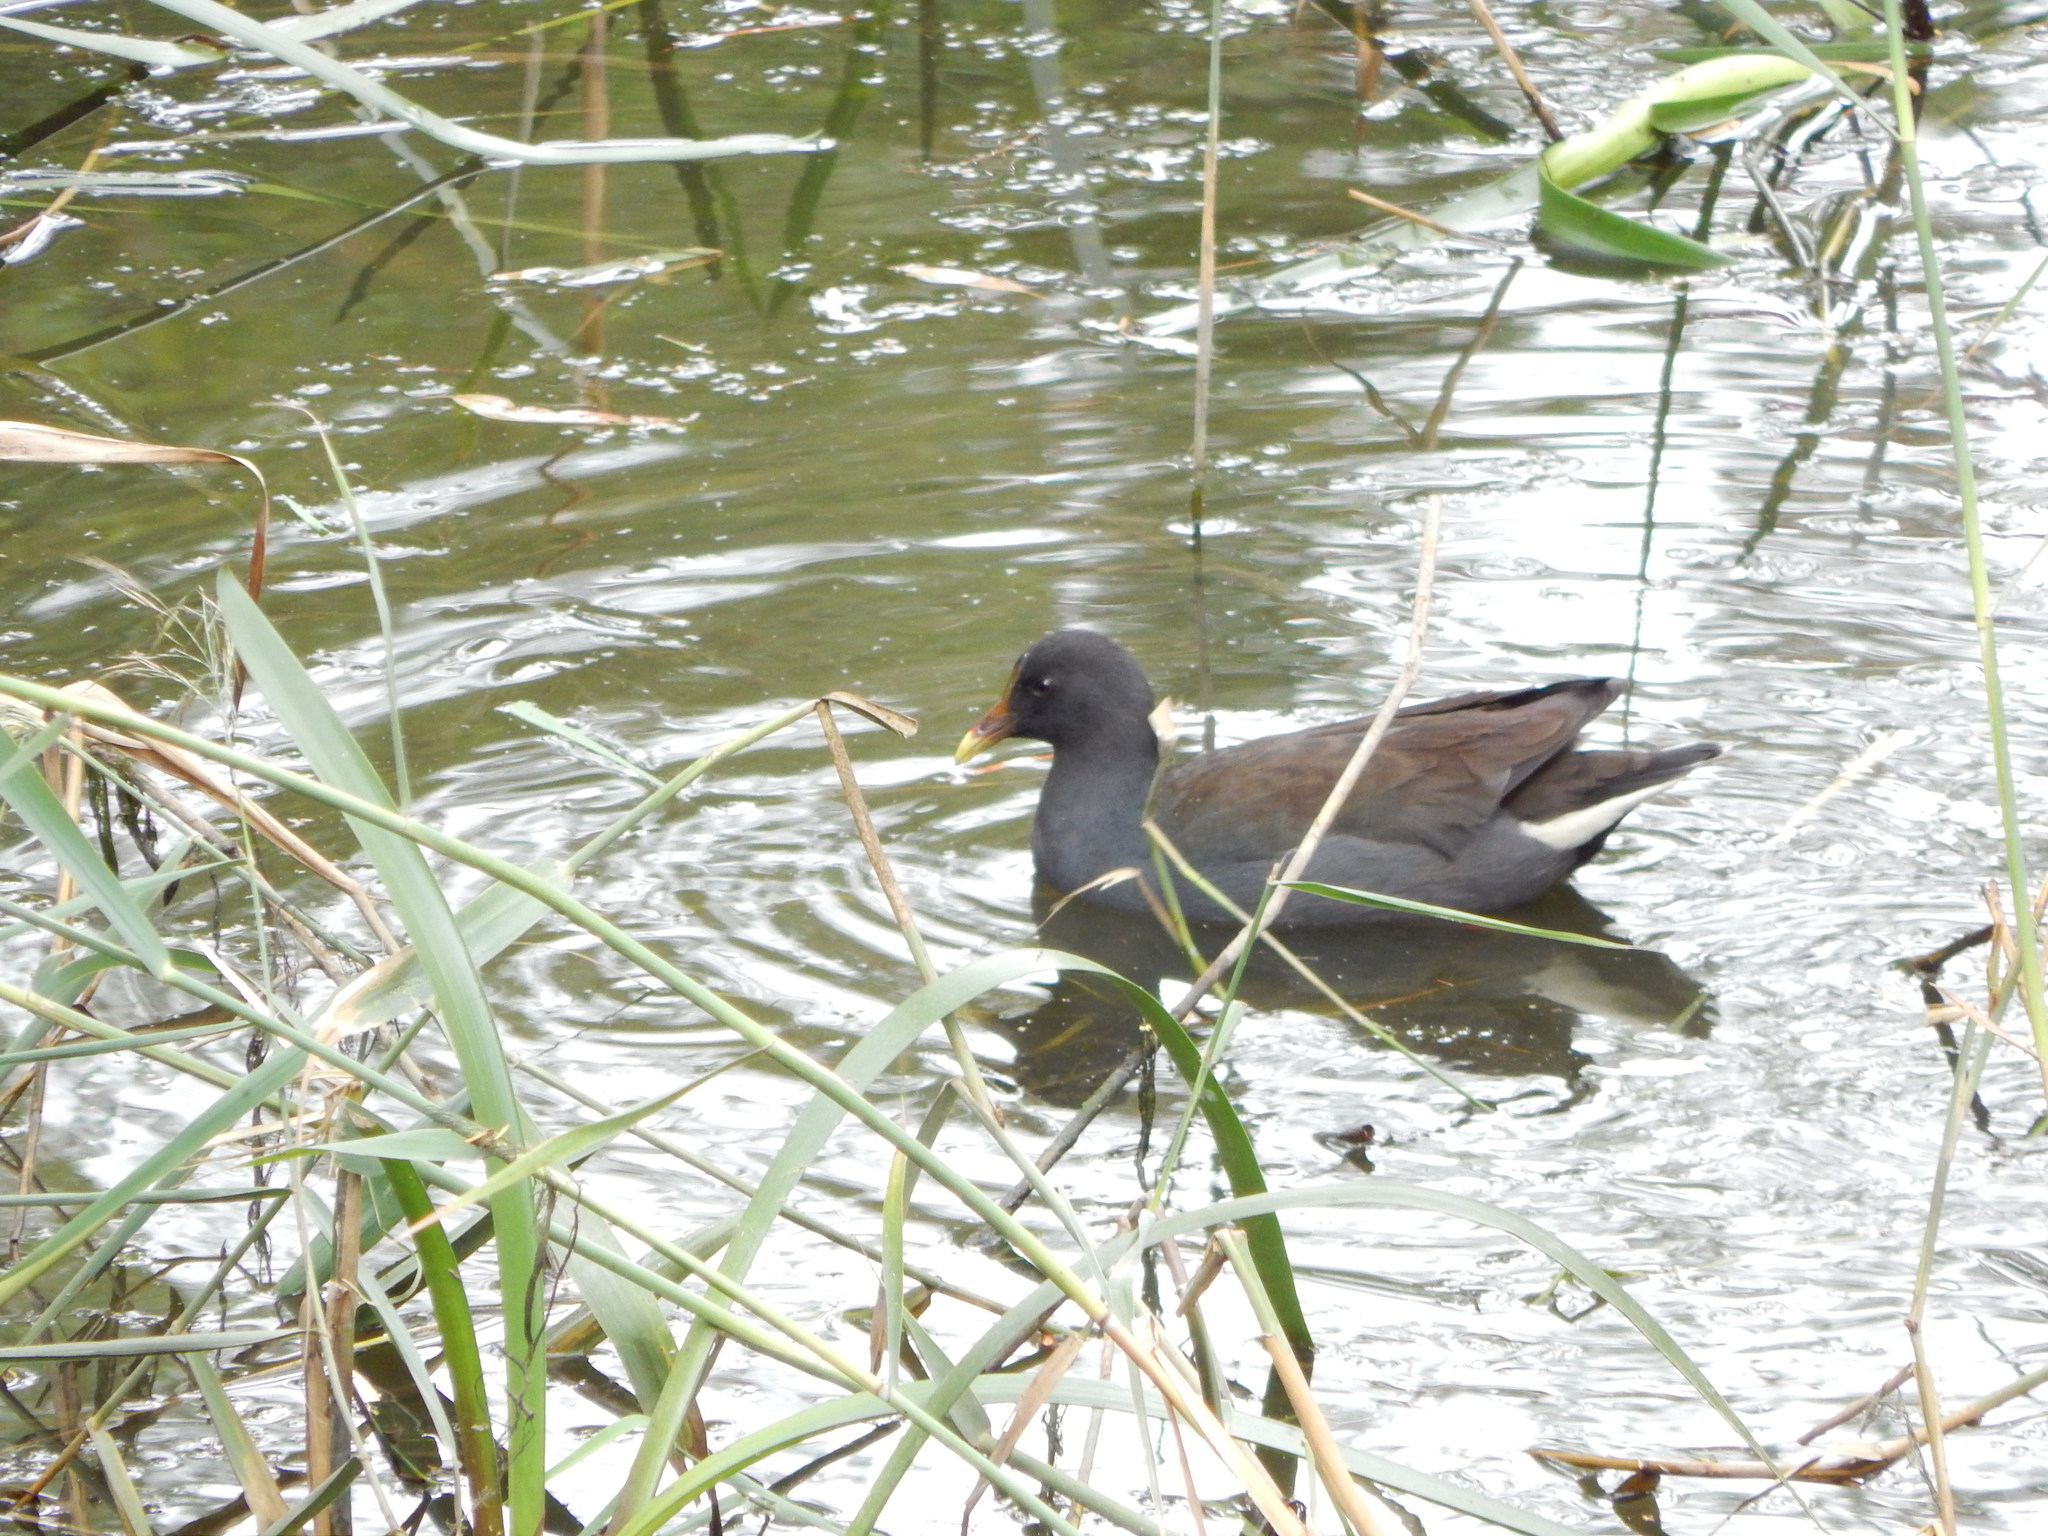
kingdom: Animalia
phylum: Chordata
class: Aves
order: Gruiformes
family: Rallidae
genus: Gallinula
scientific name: Gallinula tenebrosa
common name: Dusky moorhen
